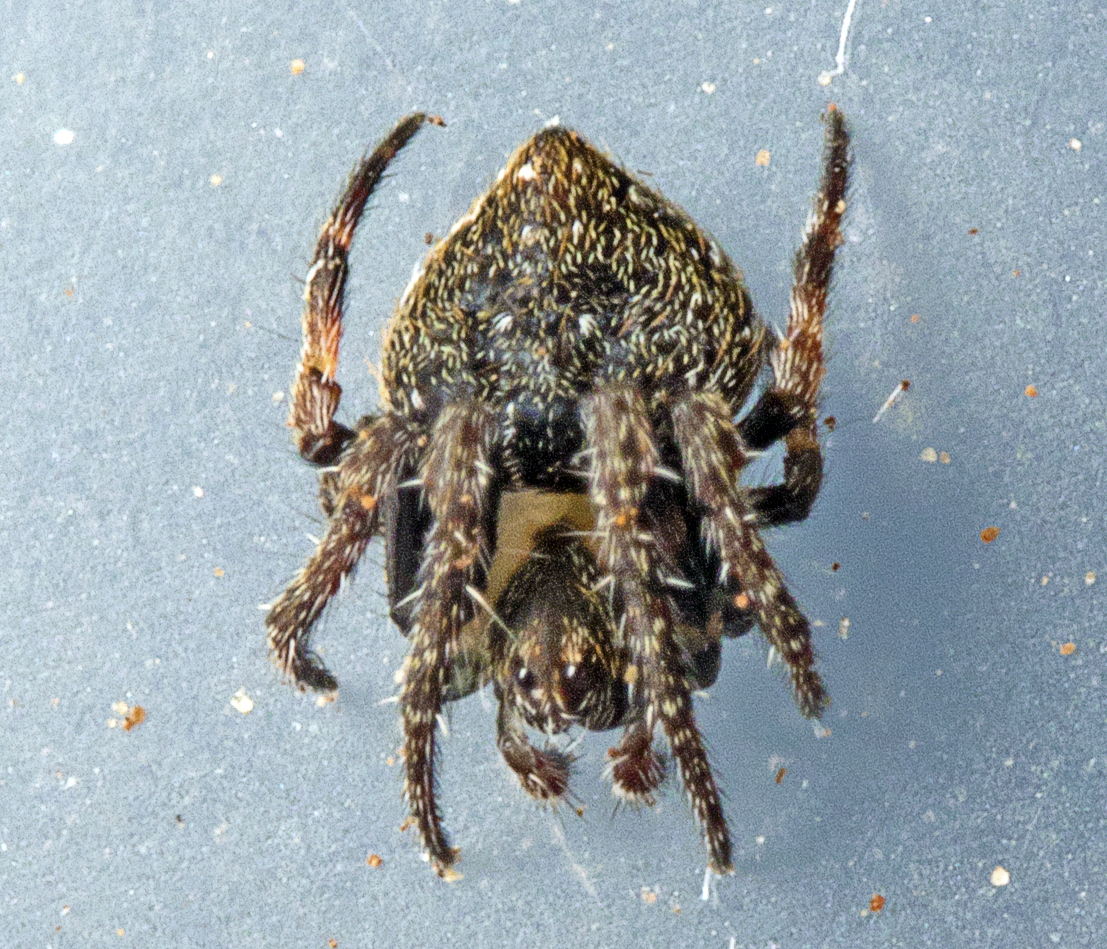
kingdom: Animalia
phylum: Arthropoda
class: Arachnida
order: Araneae
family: Araneidae
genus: Araneus
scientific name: Araneus acuminatus
